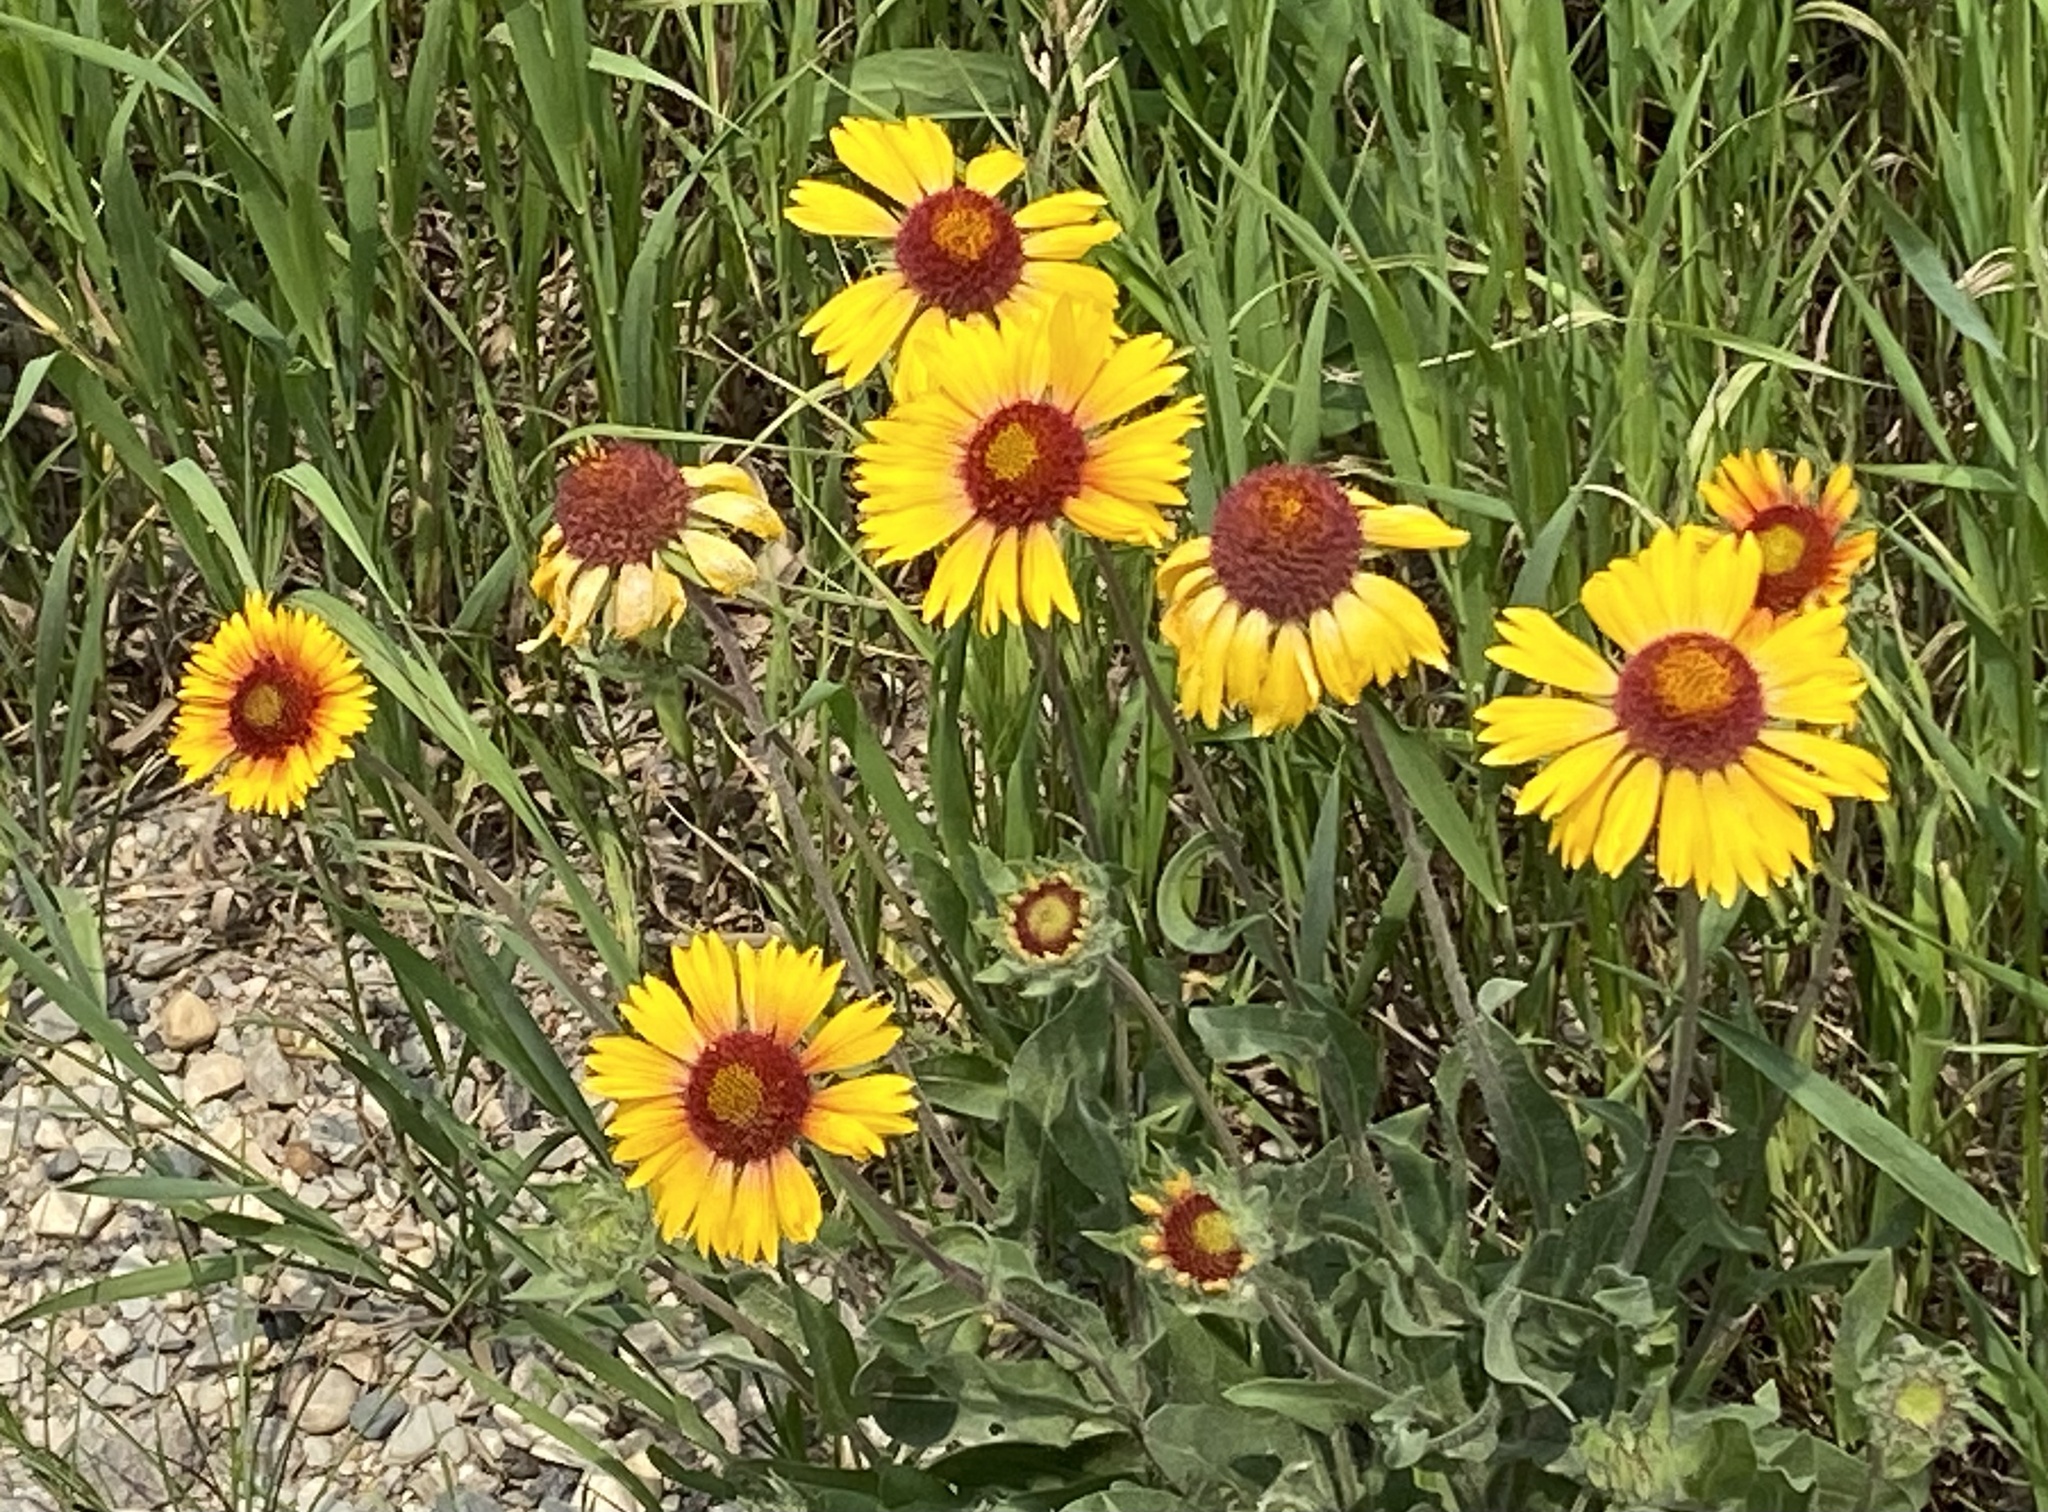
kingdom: Plantae
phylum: Tracheophyta
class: Magnoliopsida
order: Asterales
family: Asteraceae
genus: Gaillardia
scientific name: Gaillardia aristata
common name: Blanket-flower
